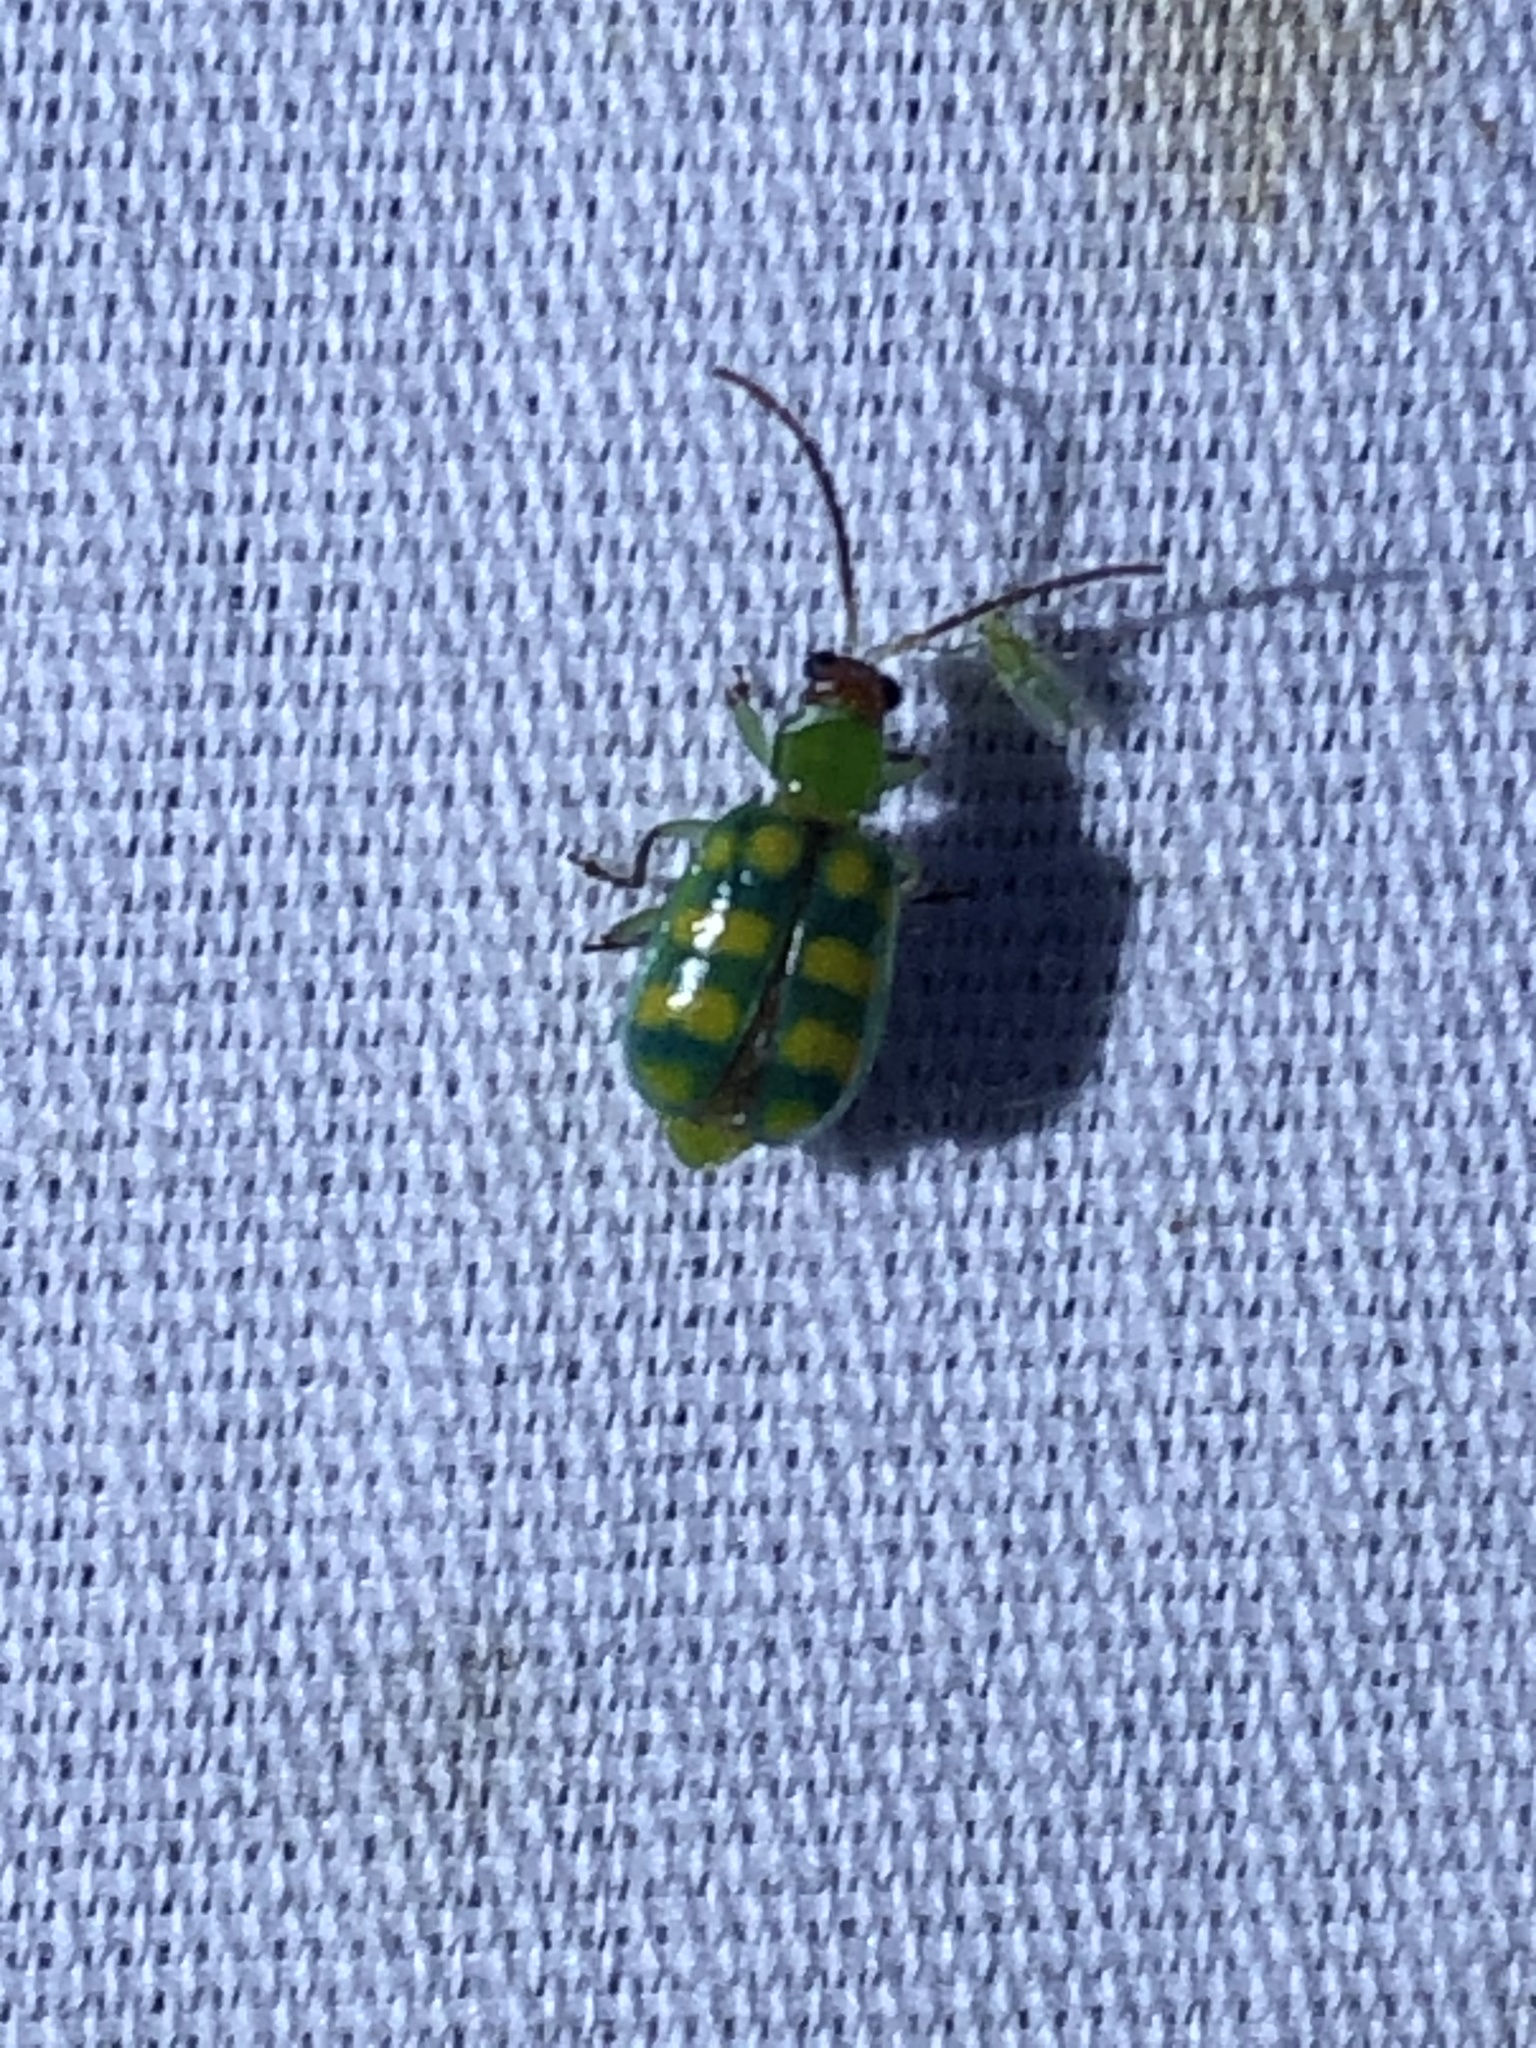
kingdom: Animalia
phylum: Arthropoda
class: Insecta
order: Coleoptera
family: Chrysomelidae
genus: Diabrotica
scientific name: Diabrotica balteata
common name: Leaf beetle
